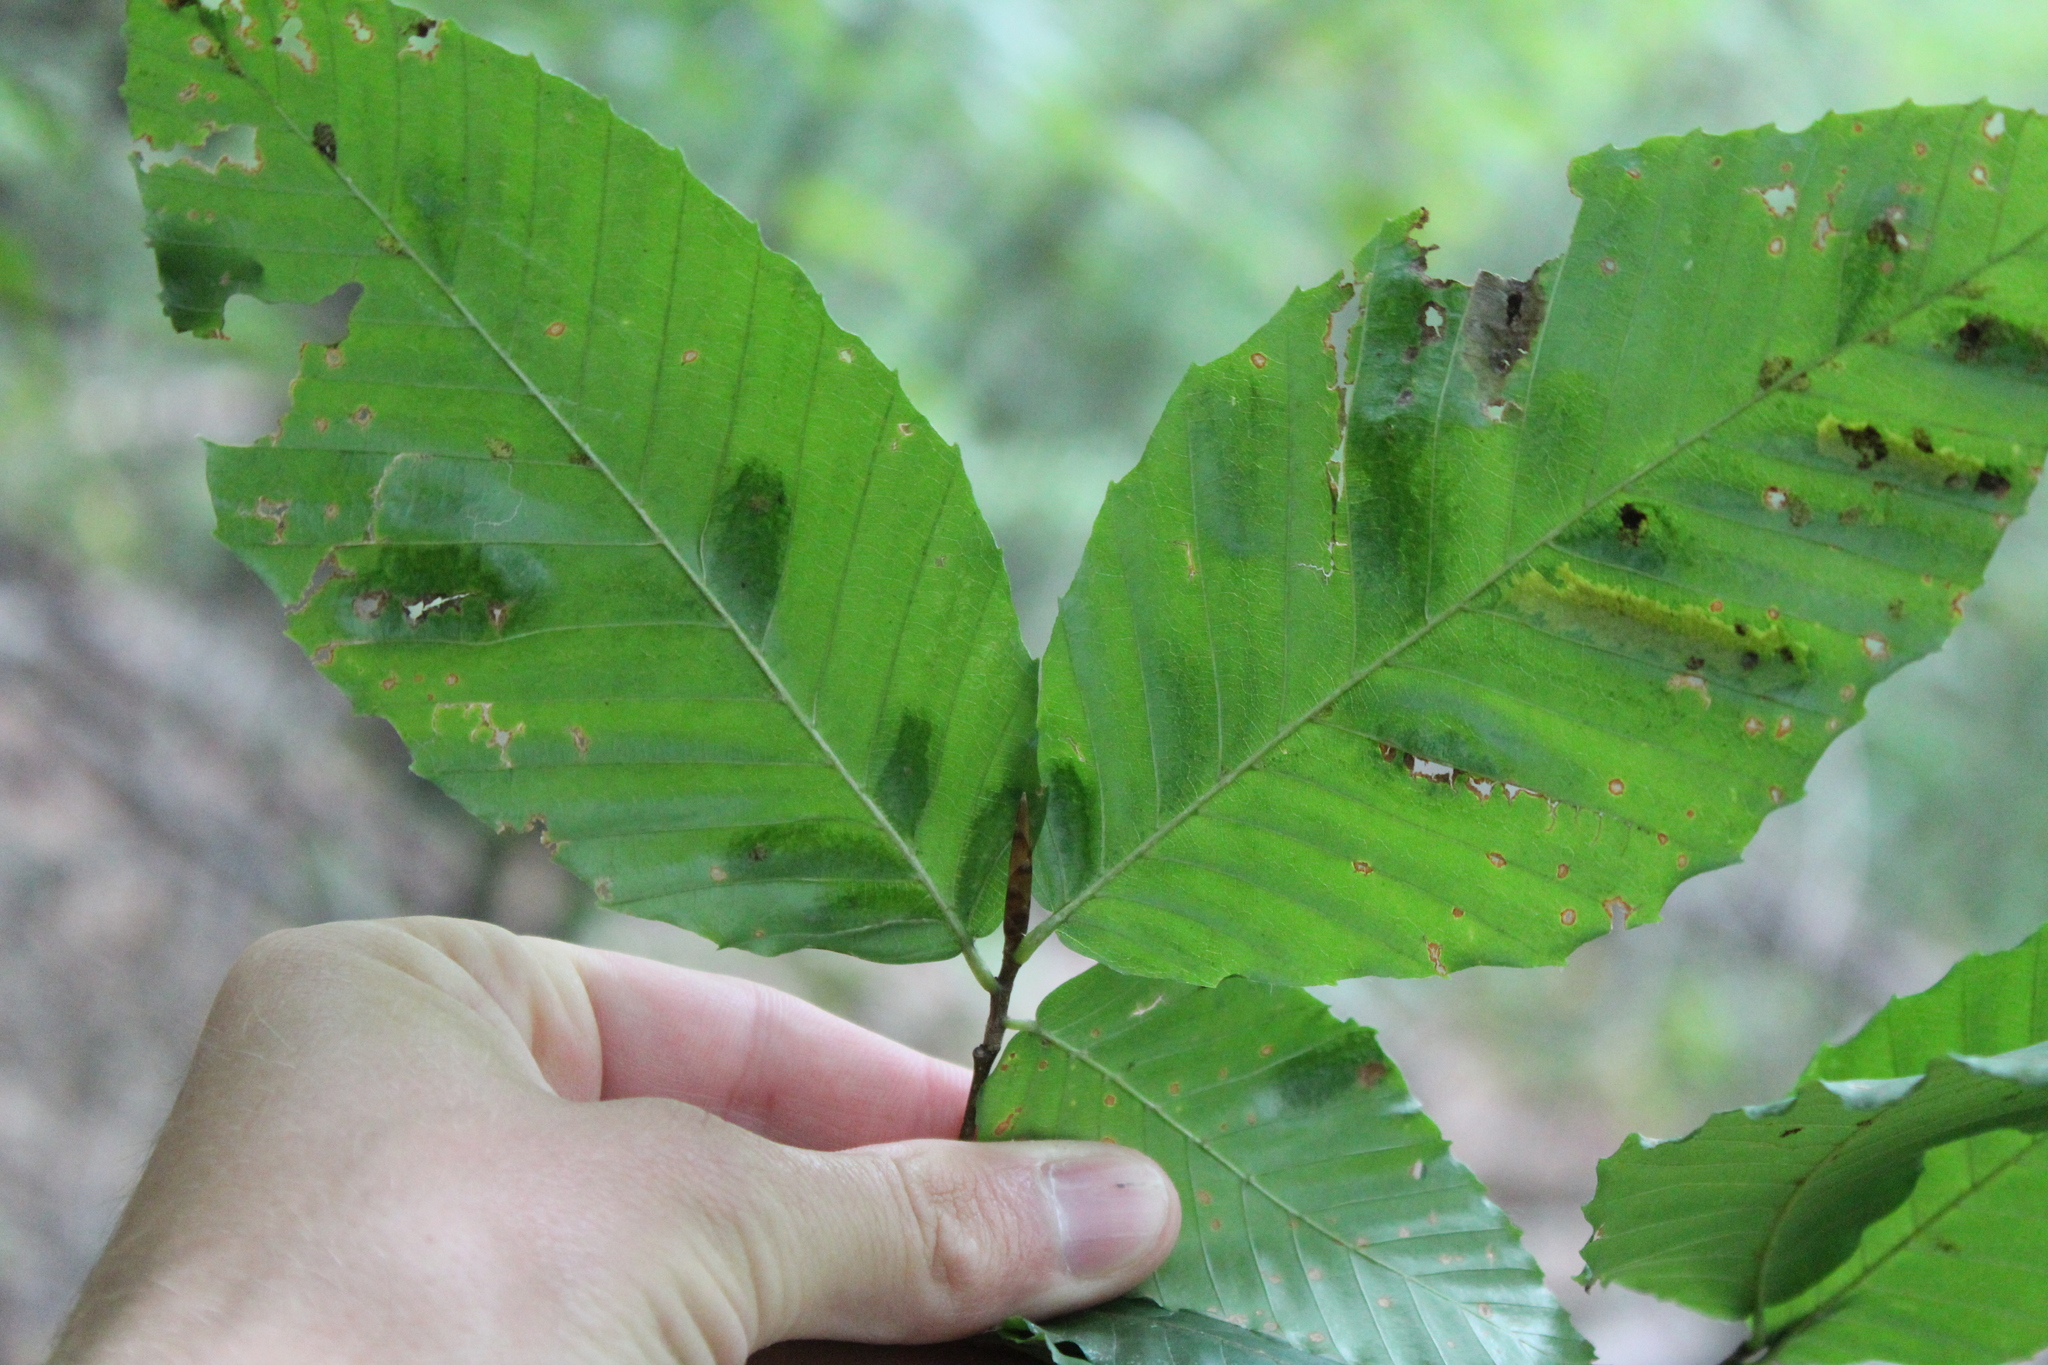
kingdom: Animalia
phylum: Nematoda
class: Chromadorea
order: Rhabditida
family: Anguinidae
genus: Litylenchus
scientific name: Litylenchus crenatae
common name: Beech leaf disease
